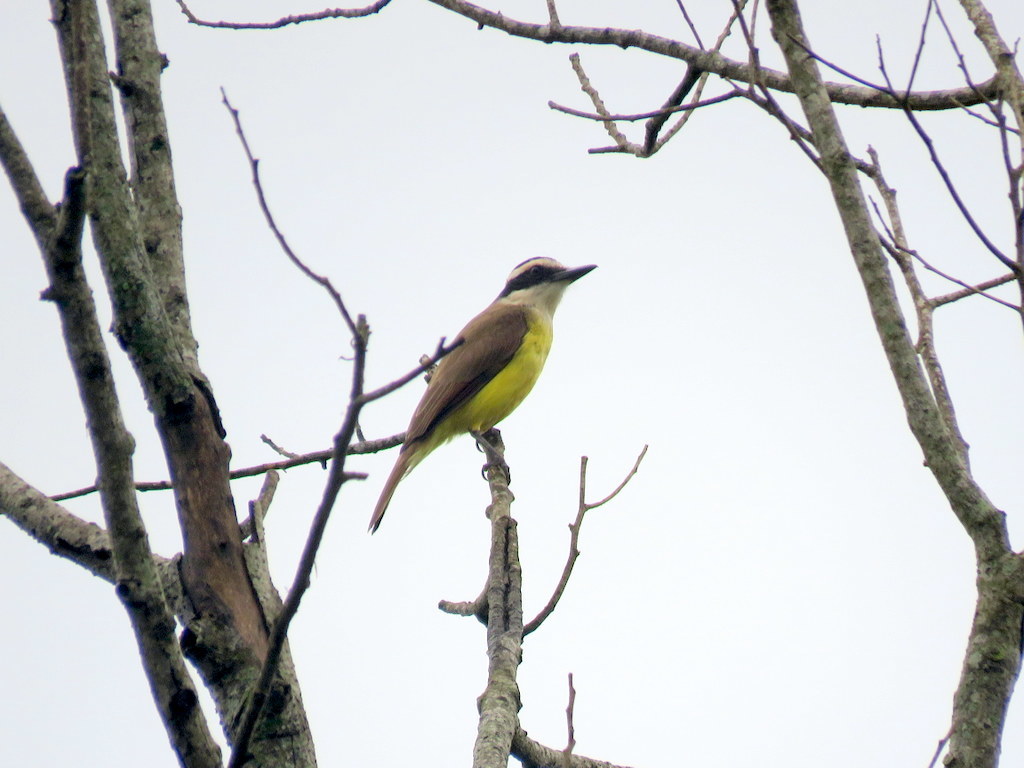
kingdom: Animalia
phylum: Chordata
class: Aves
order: Passeriformes
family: Tyrannidae
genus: Pitangus
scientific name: Pitangus sulphuratus
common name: Great kiskadee
